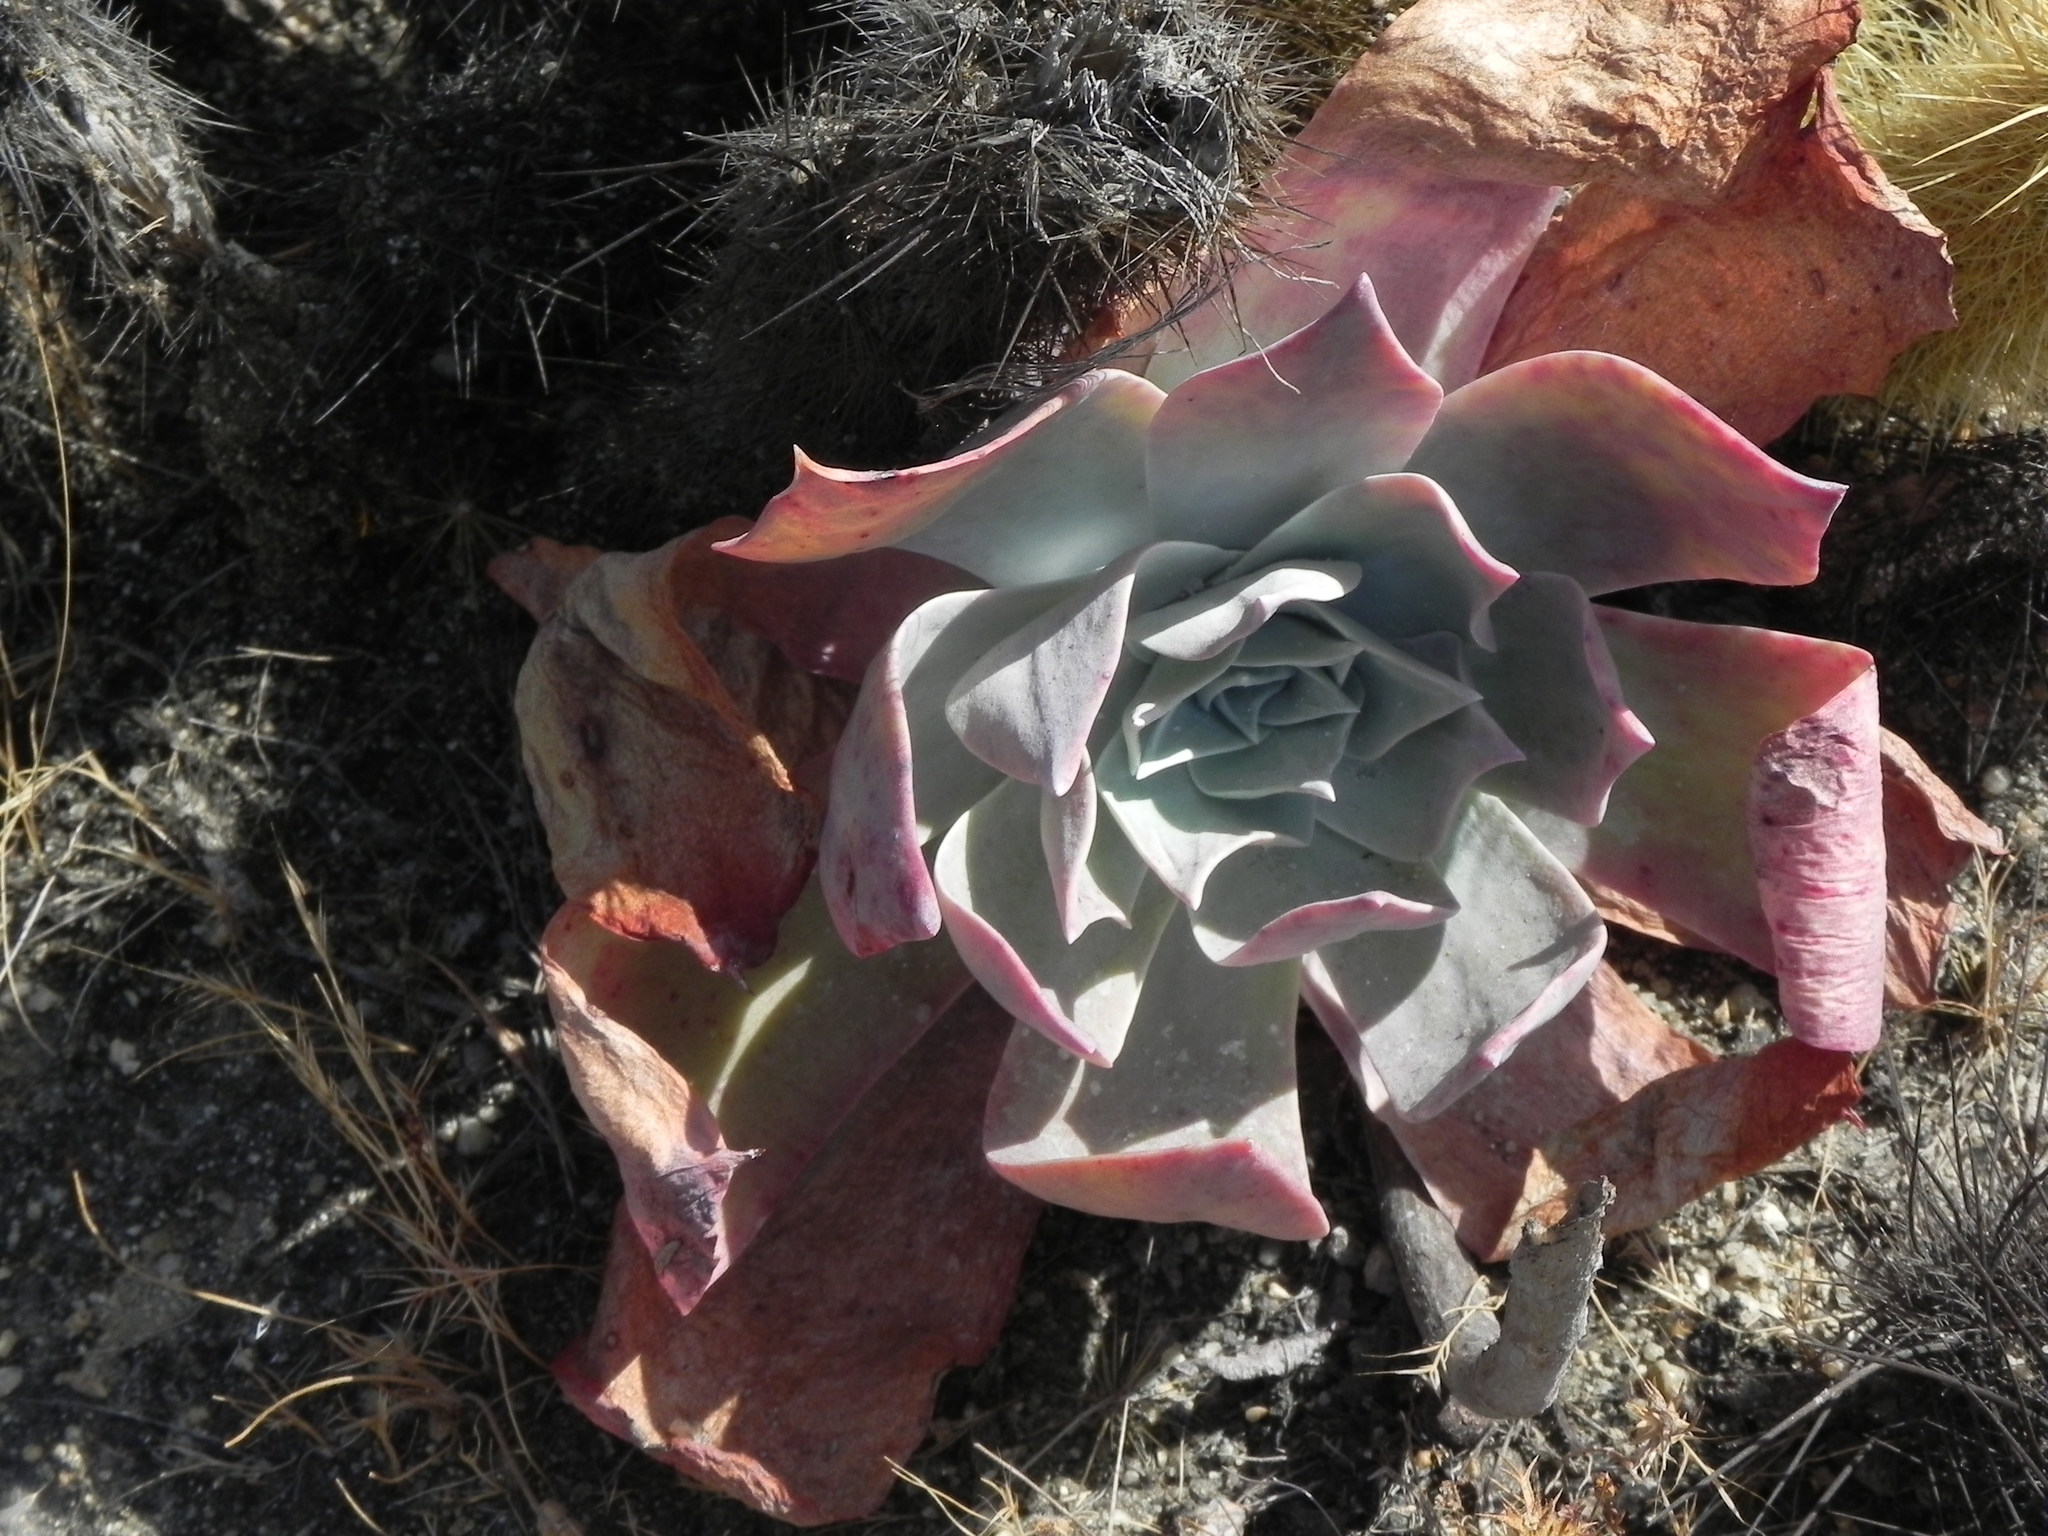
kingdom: Plantae
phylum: Tracheophyta
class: Magnoliopsida
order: Saxifragales
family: Crassulaceae
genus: Dudleya
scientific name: Dudleya pulverulenta
